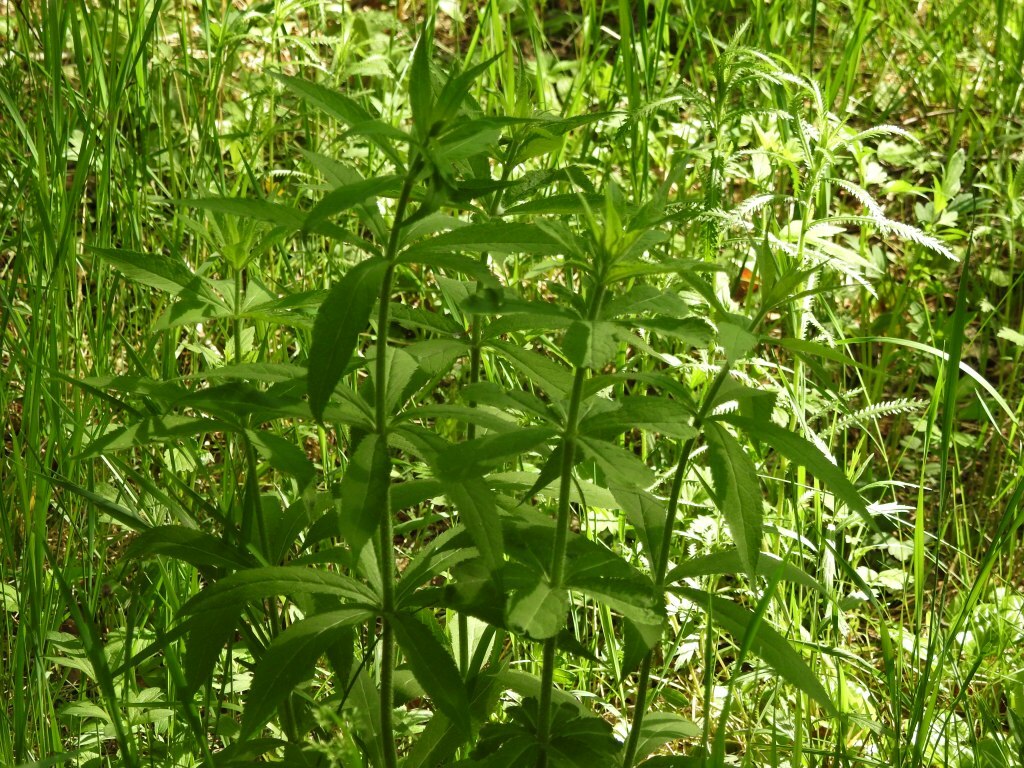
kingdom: Plantae
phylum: Tracheophyta
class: Magnoliopsida
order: Lamiales
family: Plantaginaceae
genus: Veronicastrum
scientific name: Veronicastrum sibiricum
